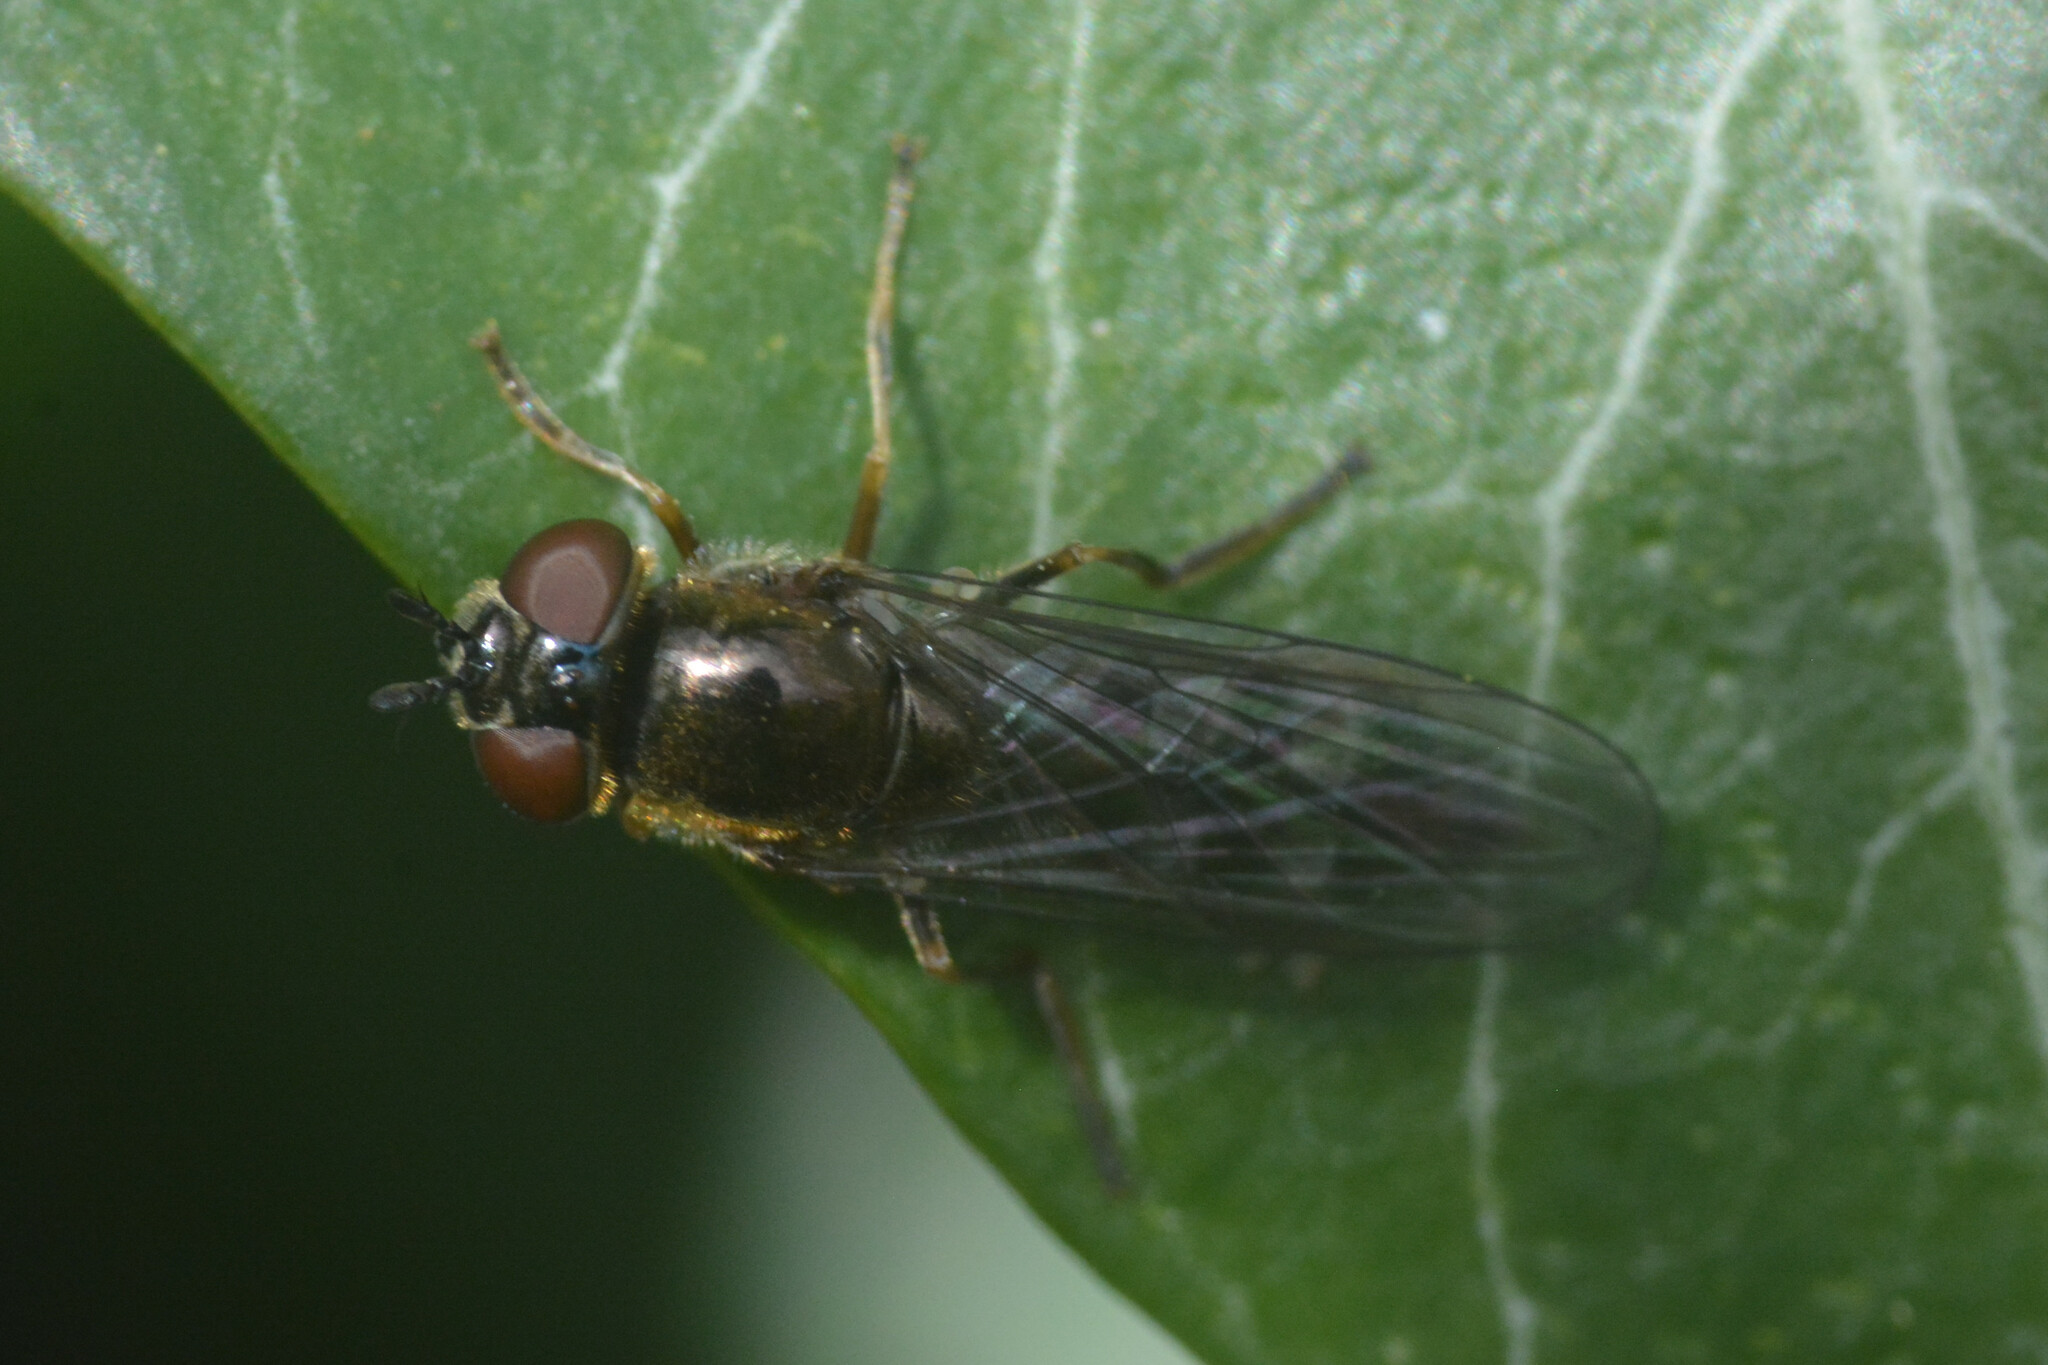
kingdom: Animalia
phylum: Arthropoda
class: Insecta
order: Diptera
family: Syrphidae
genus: Platycheirus
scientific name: Platycheirus albimanus
